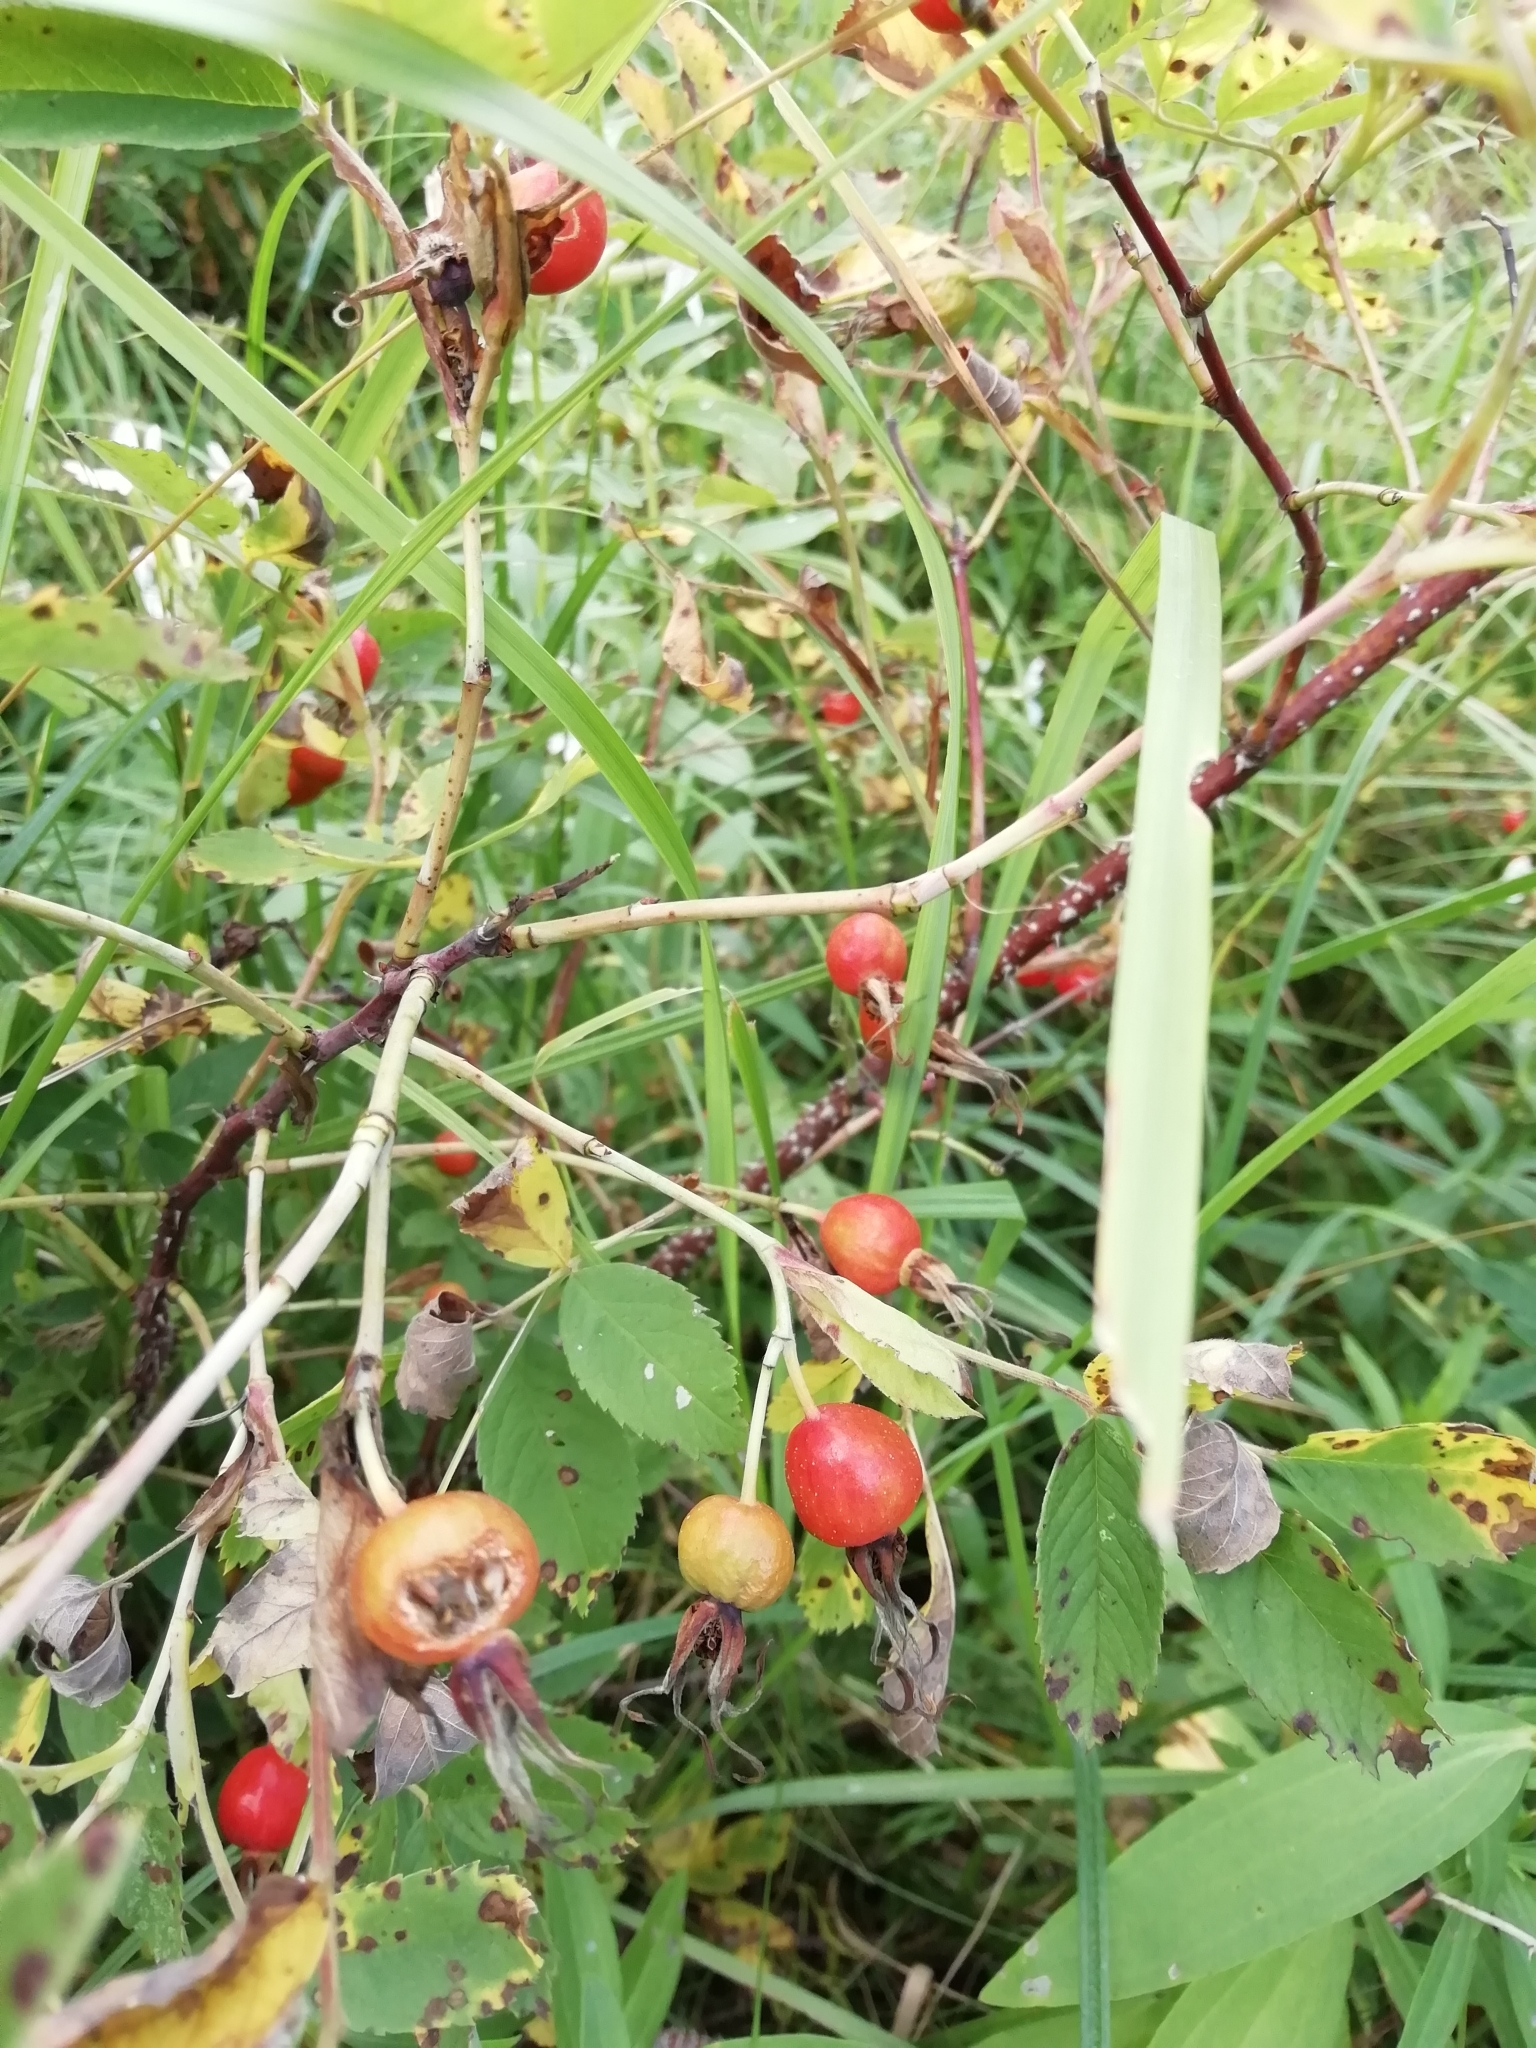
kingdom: Plantae
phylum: Tracheophyta
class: Magnoliopsida
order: Rosales
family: Rosaceae
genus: Rosa
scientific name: Rosa
